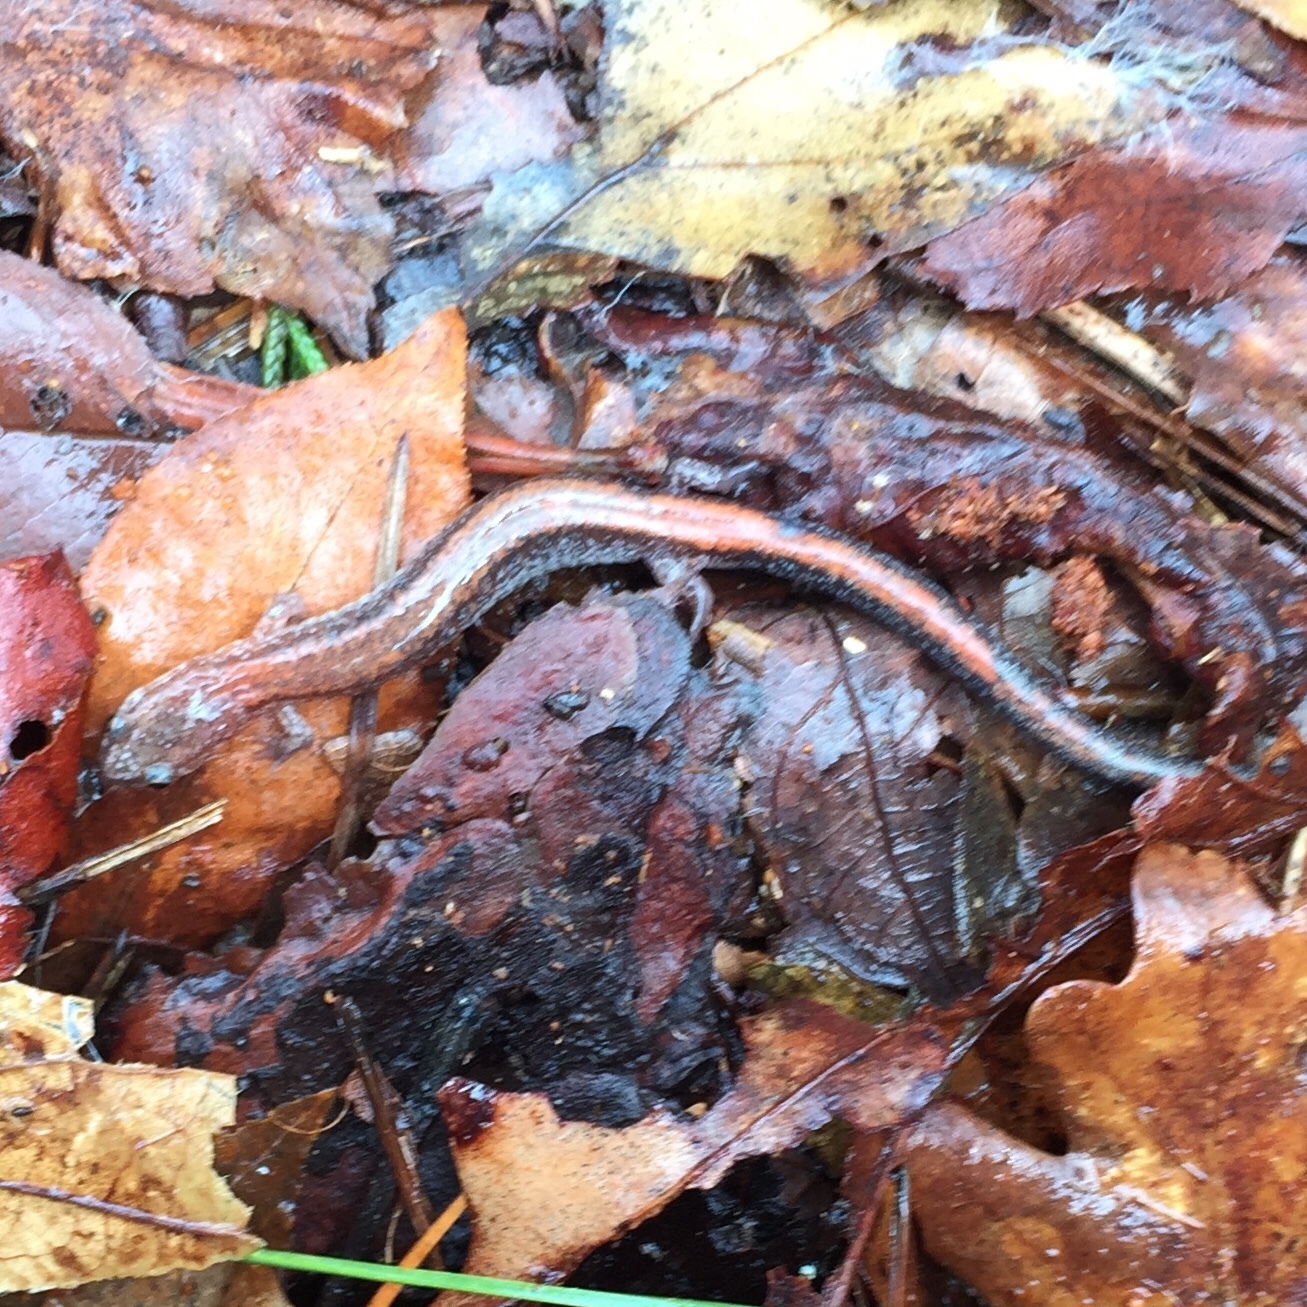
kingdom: Animalia
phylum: Chordata
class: Amphibia
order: Caudata
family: Plethodontidae
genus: Plethodon
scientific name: Plethodon cinereus
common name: Redback salamander
